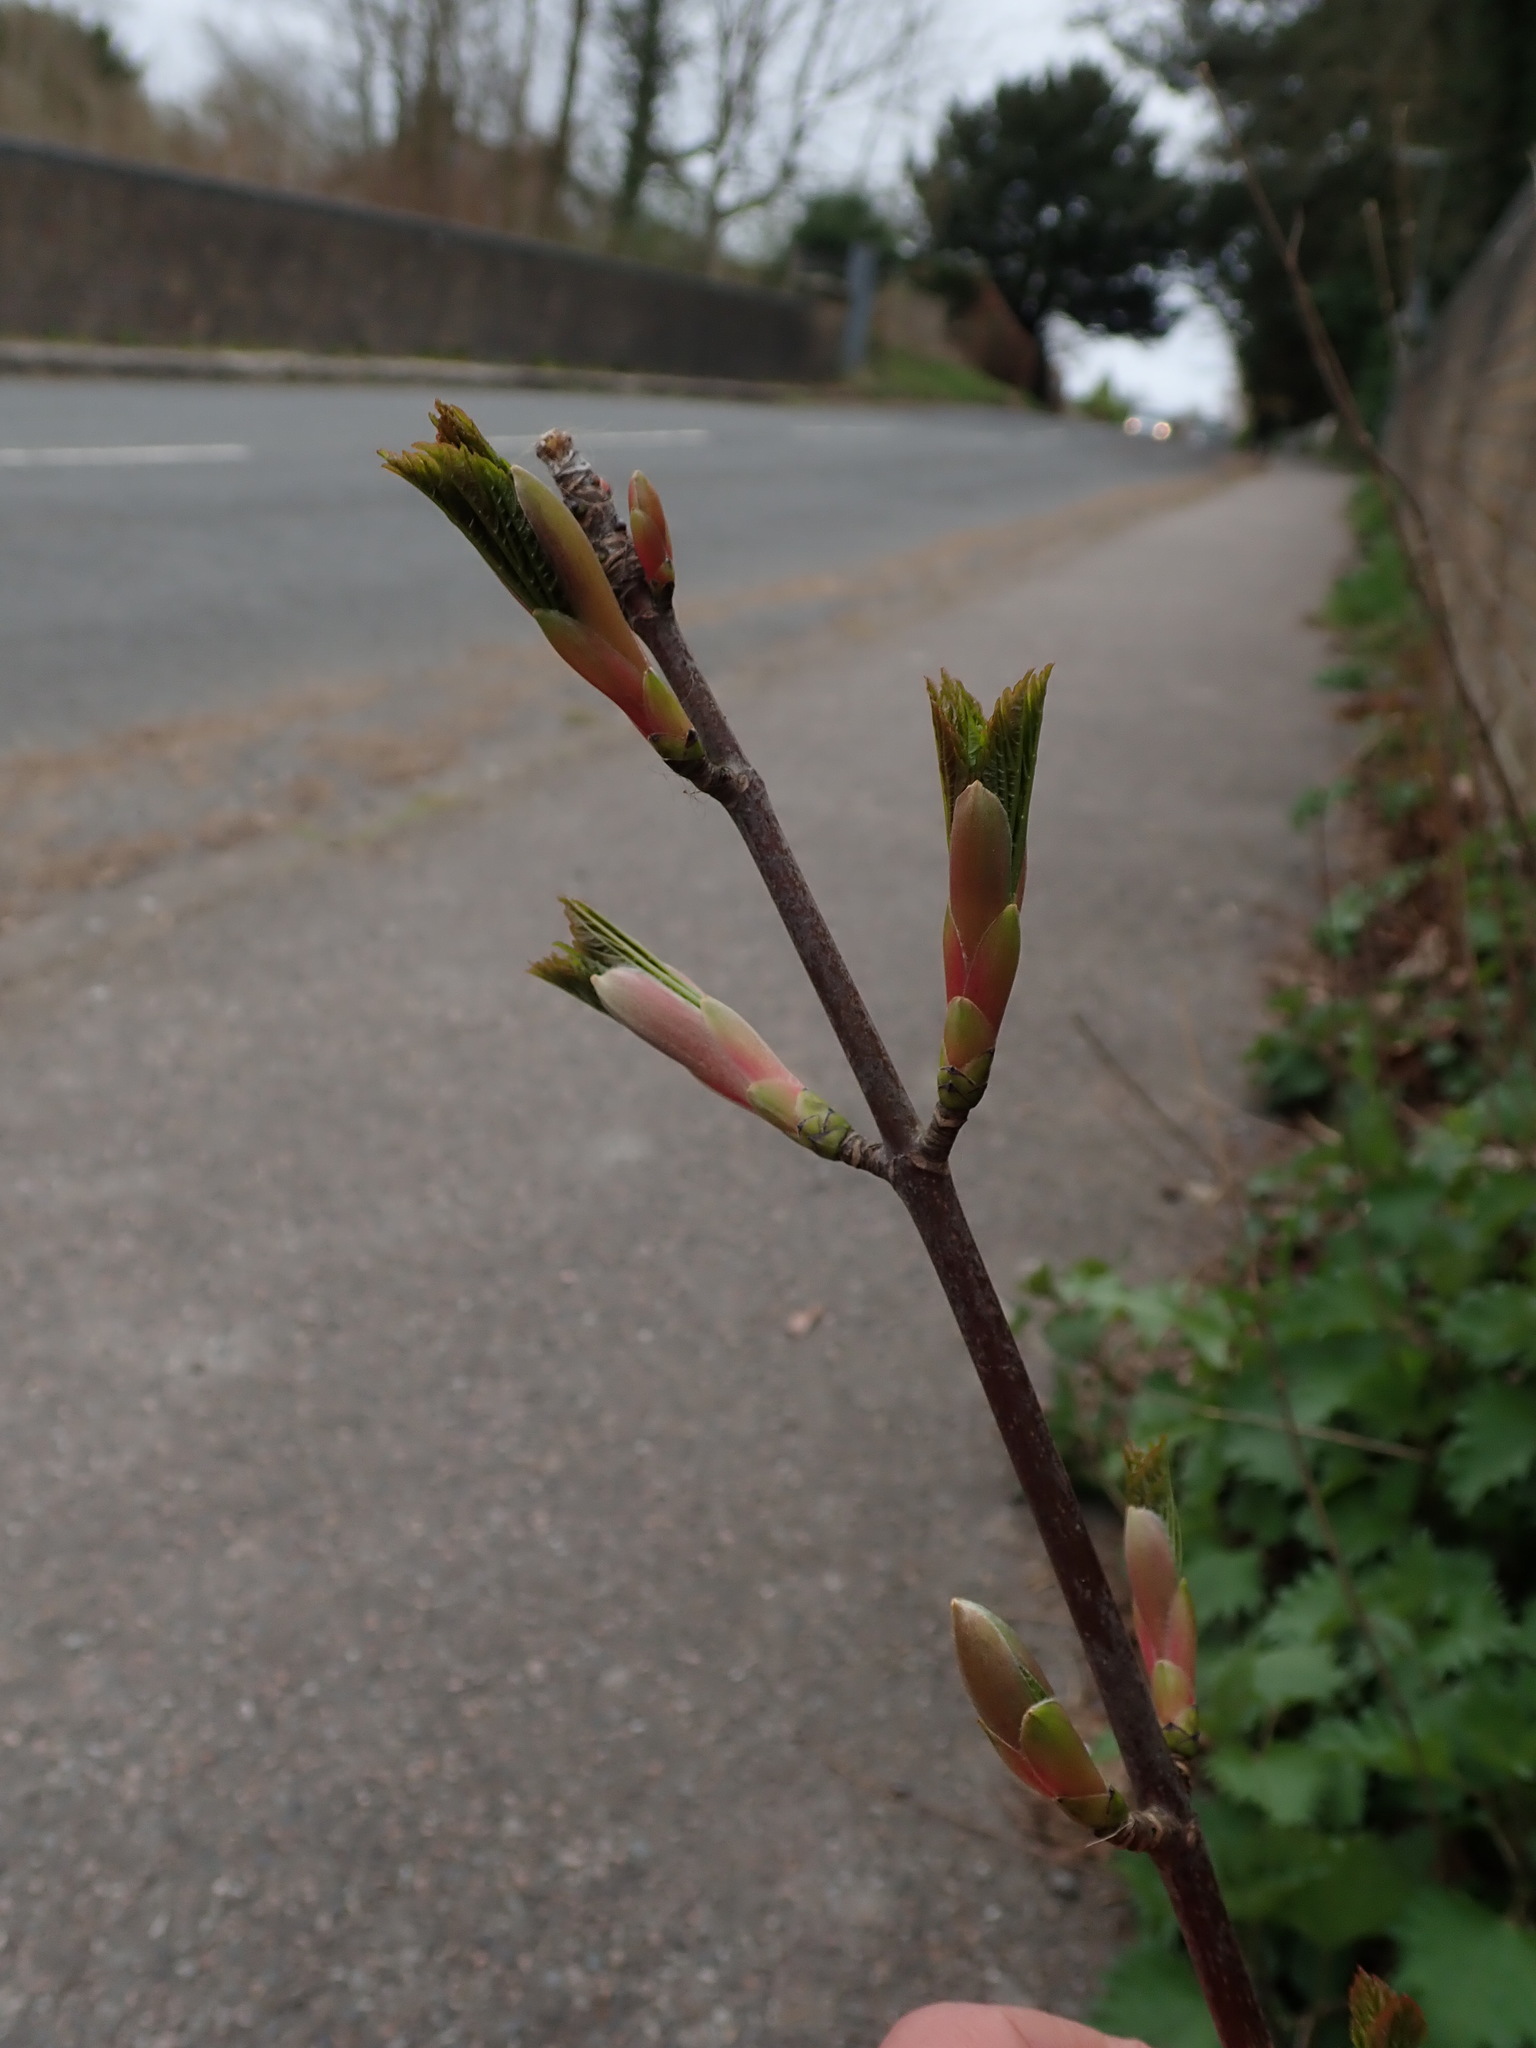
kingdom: Plantae
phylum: Tracheophyta
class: Magnoliopsida
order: Sapindales
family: Sapindaceae
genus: Acer
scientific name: Acer pseudoplatanus
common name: Sycamore
